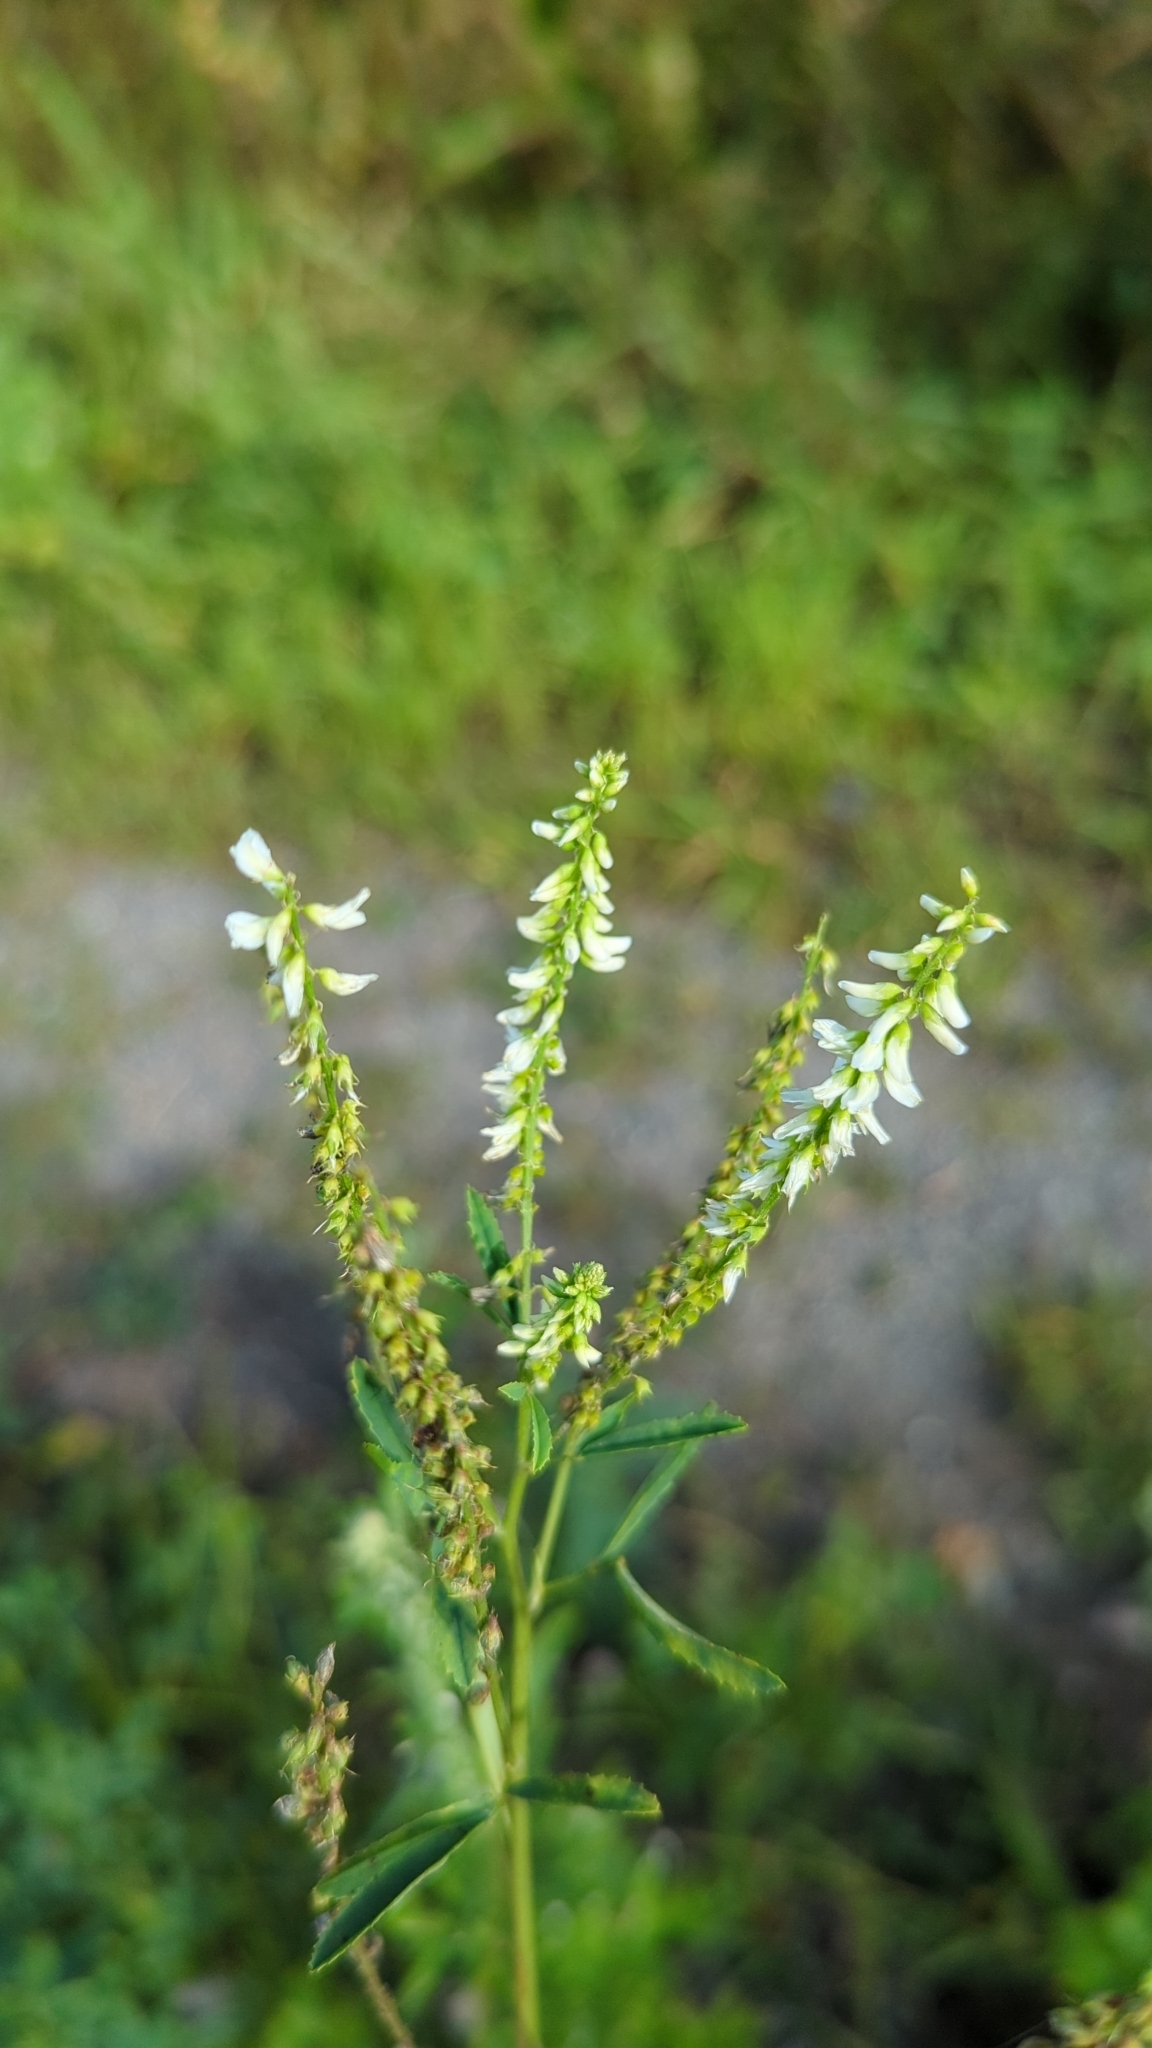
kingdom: Plantae
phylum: Tracheophyta
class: Magnoliopsida
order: Fabales
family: Fabaceae
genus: Melilotus
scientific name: Melilotus albus
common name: White melilot
